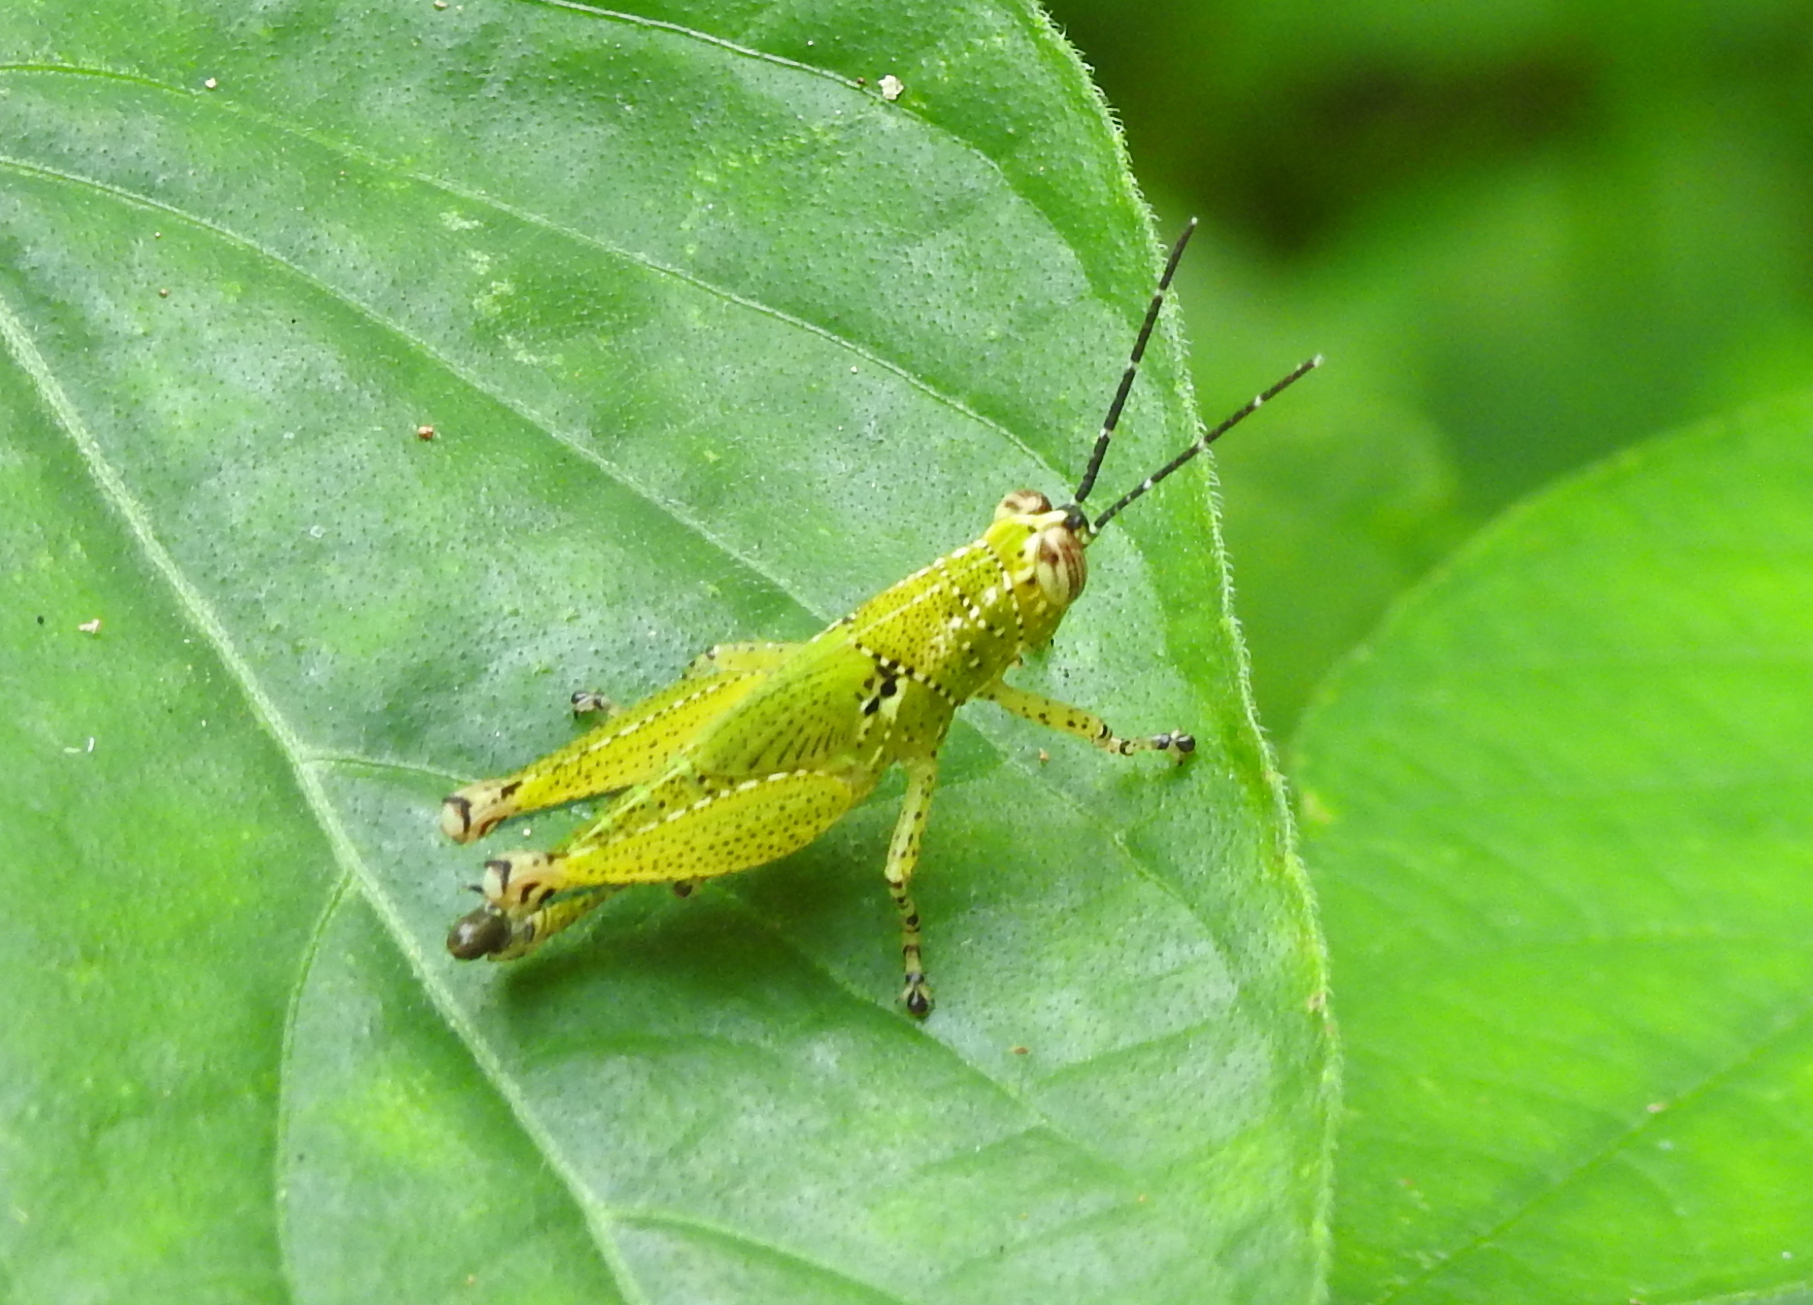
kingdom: Animalia
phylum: Arthropoda
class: Insecta
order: Orthoptera
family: Acrididae
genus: Xenocatantops
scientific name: Xenocatantops humile
